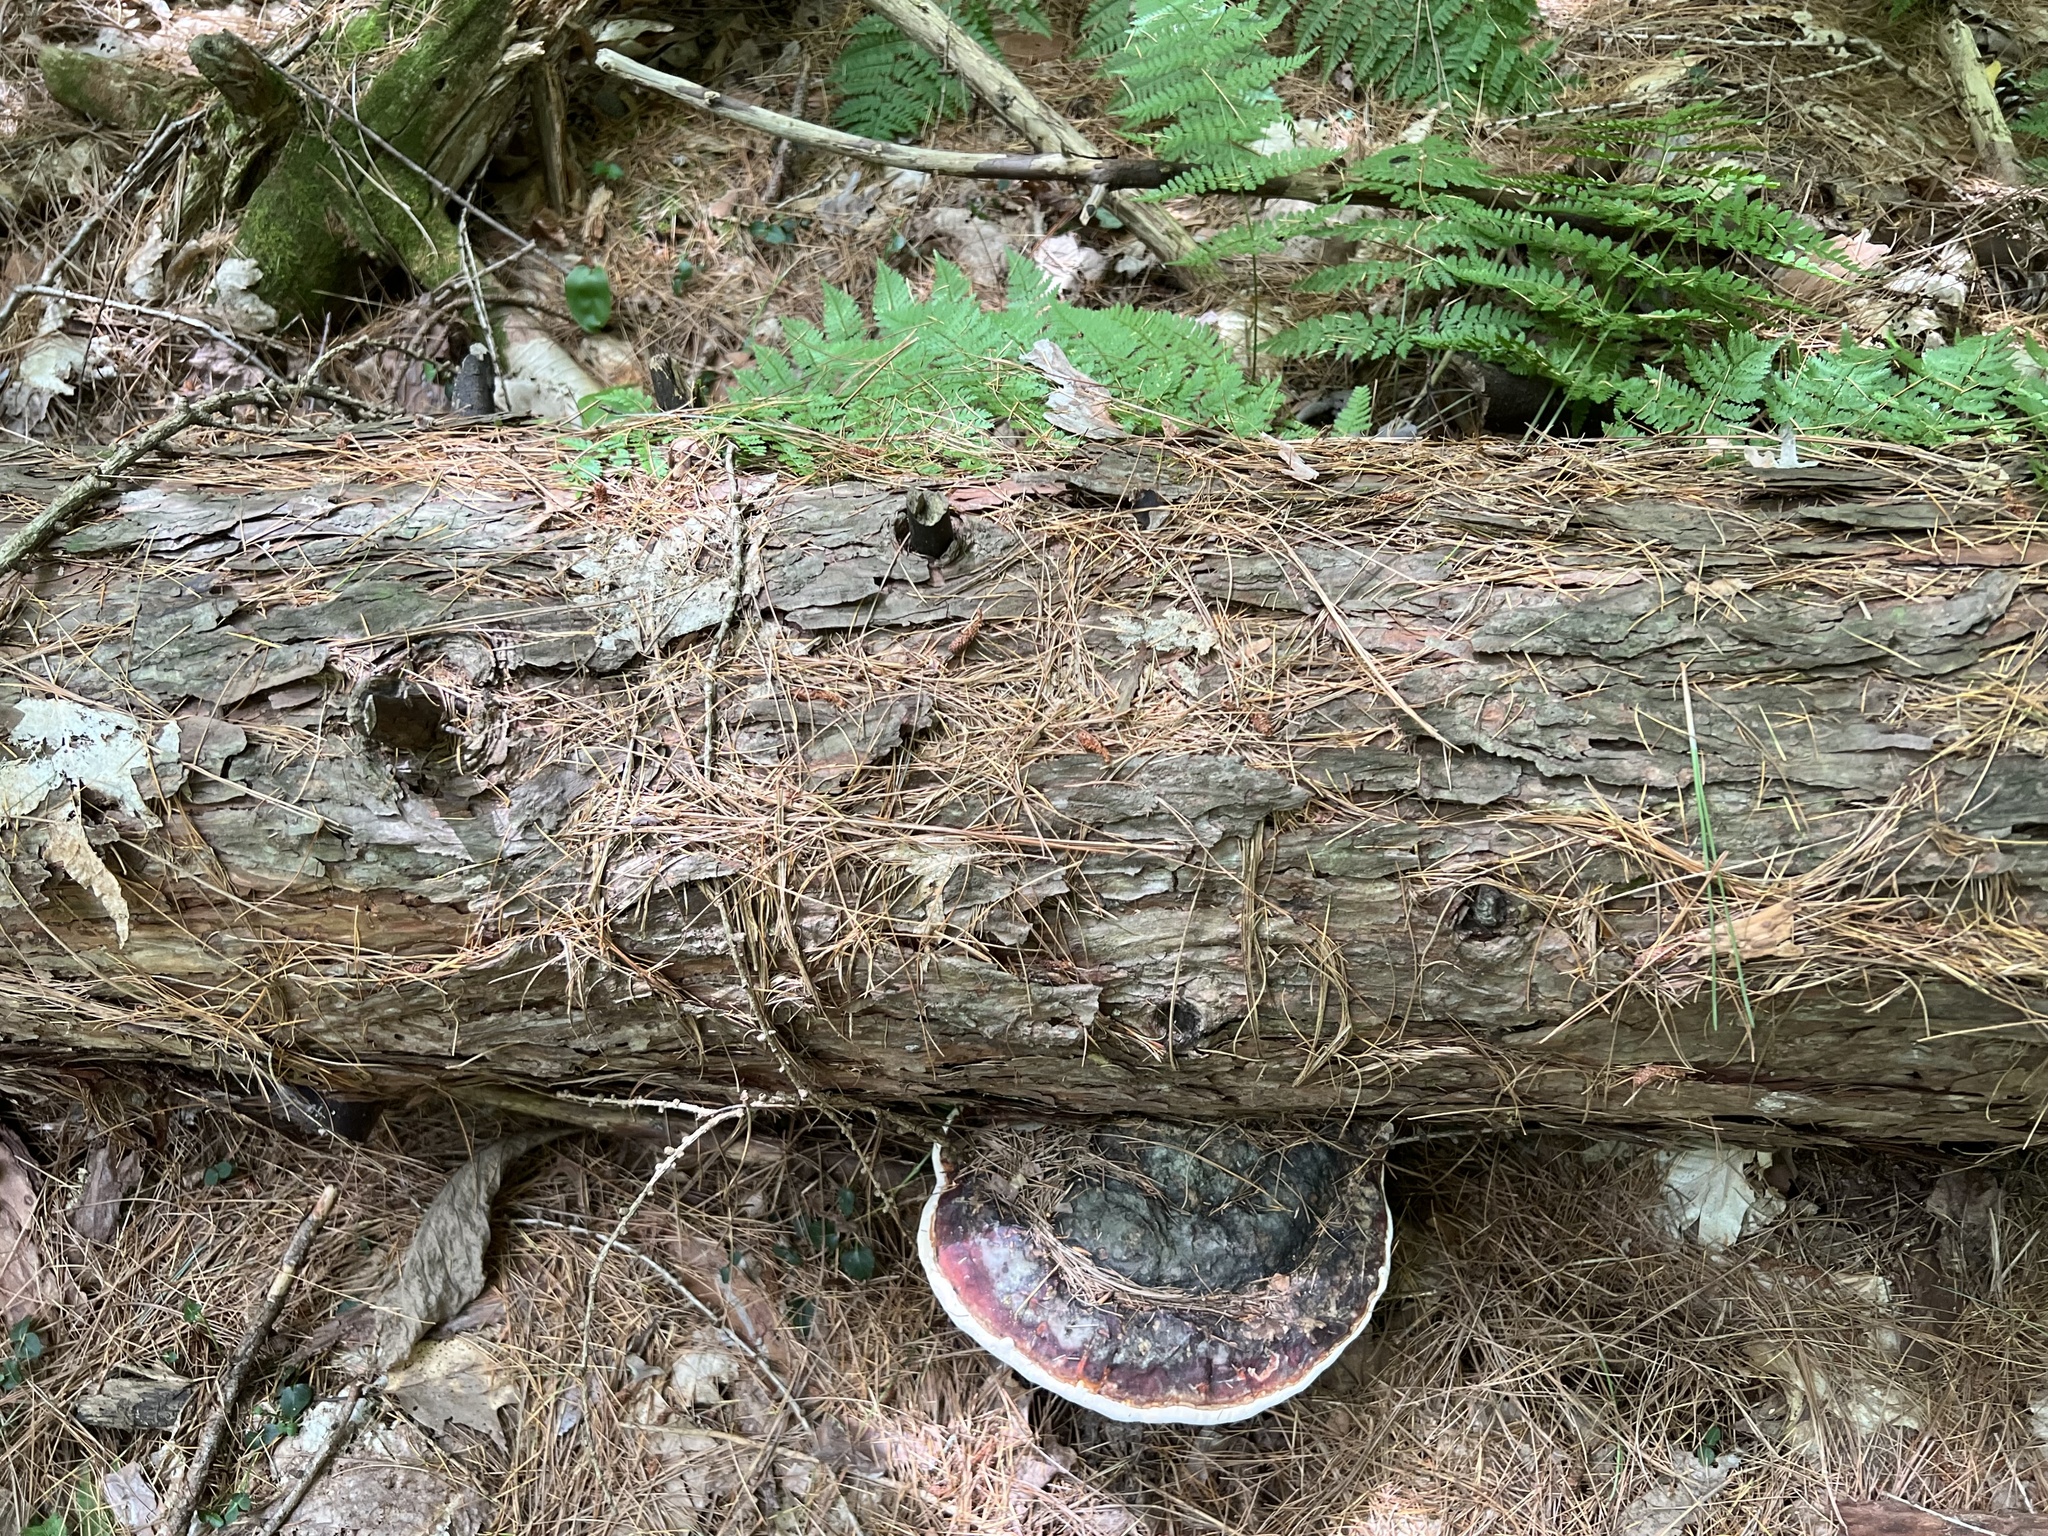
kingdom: Fungi
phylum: Basidiomycota
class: Agaricomycetes
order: Polyporales
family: Fomitopsidaceae
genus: Fomitopsis
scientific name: Fomitopsis mounceae
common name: Northern red belt
